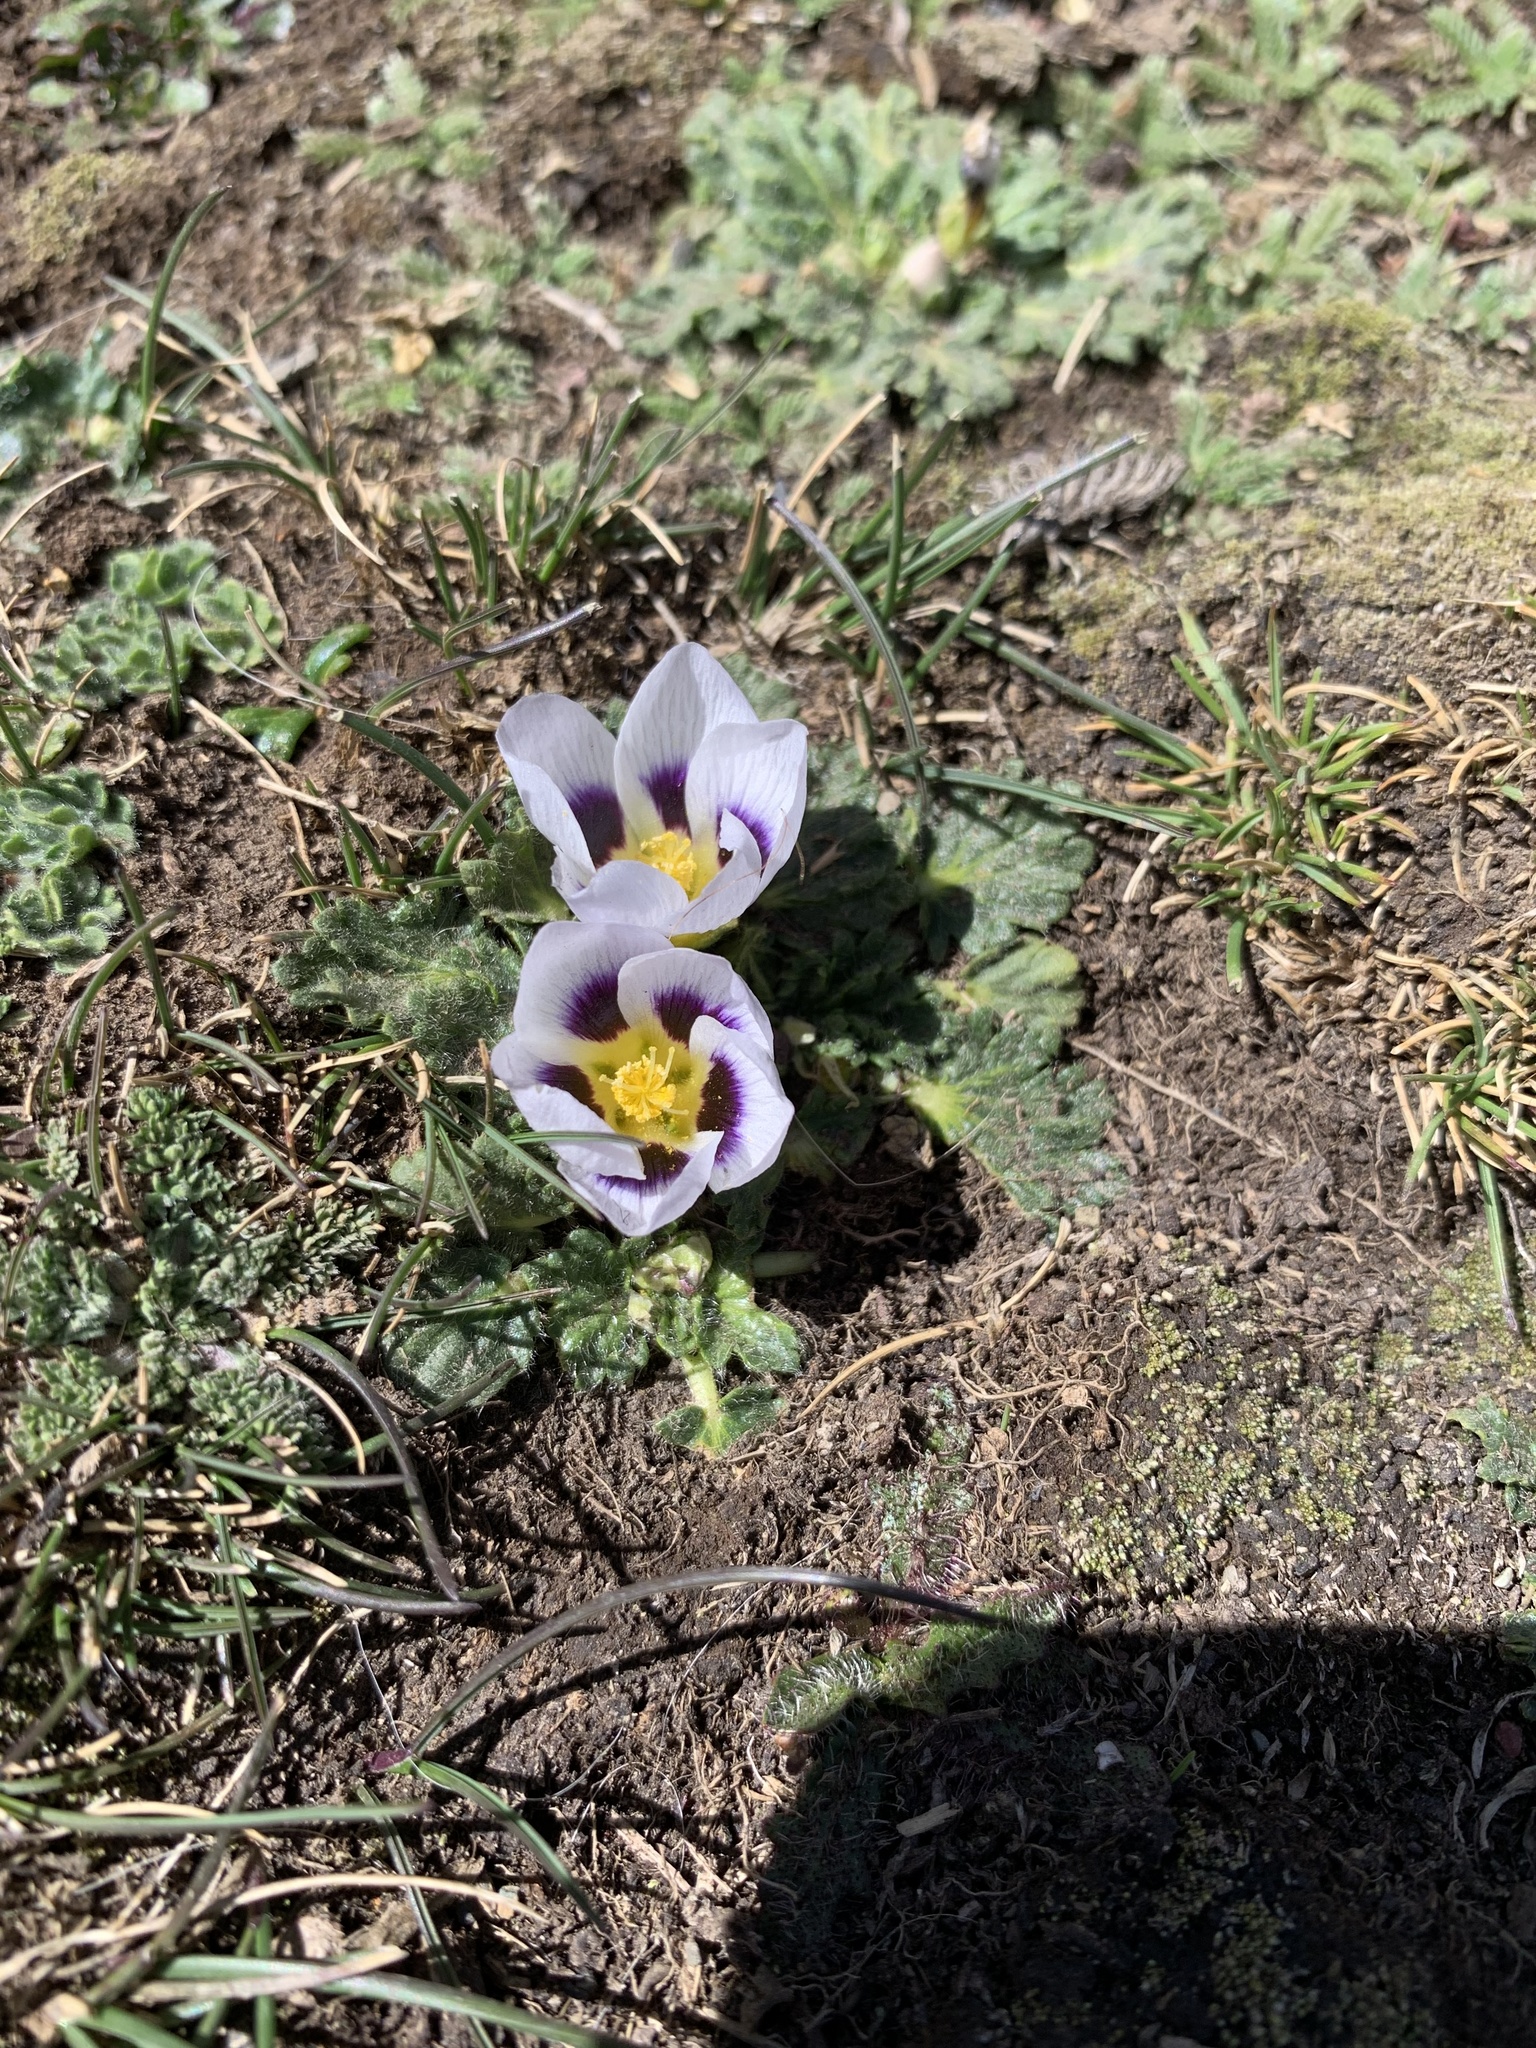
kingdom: Plantae
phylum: Tracheophyta
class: Magnoliopsida
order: Malvales
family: Malvaceae
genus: Acaulimalva
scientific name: Acaulimalva nubigena
